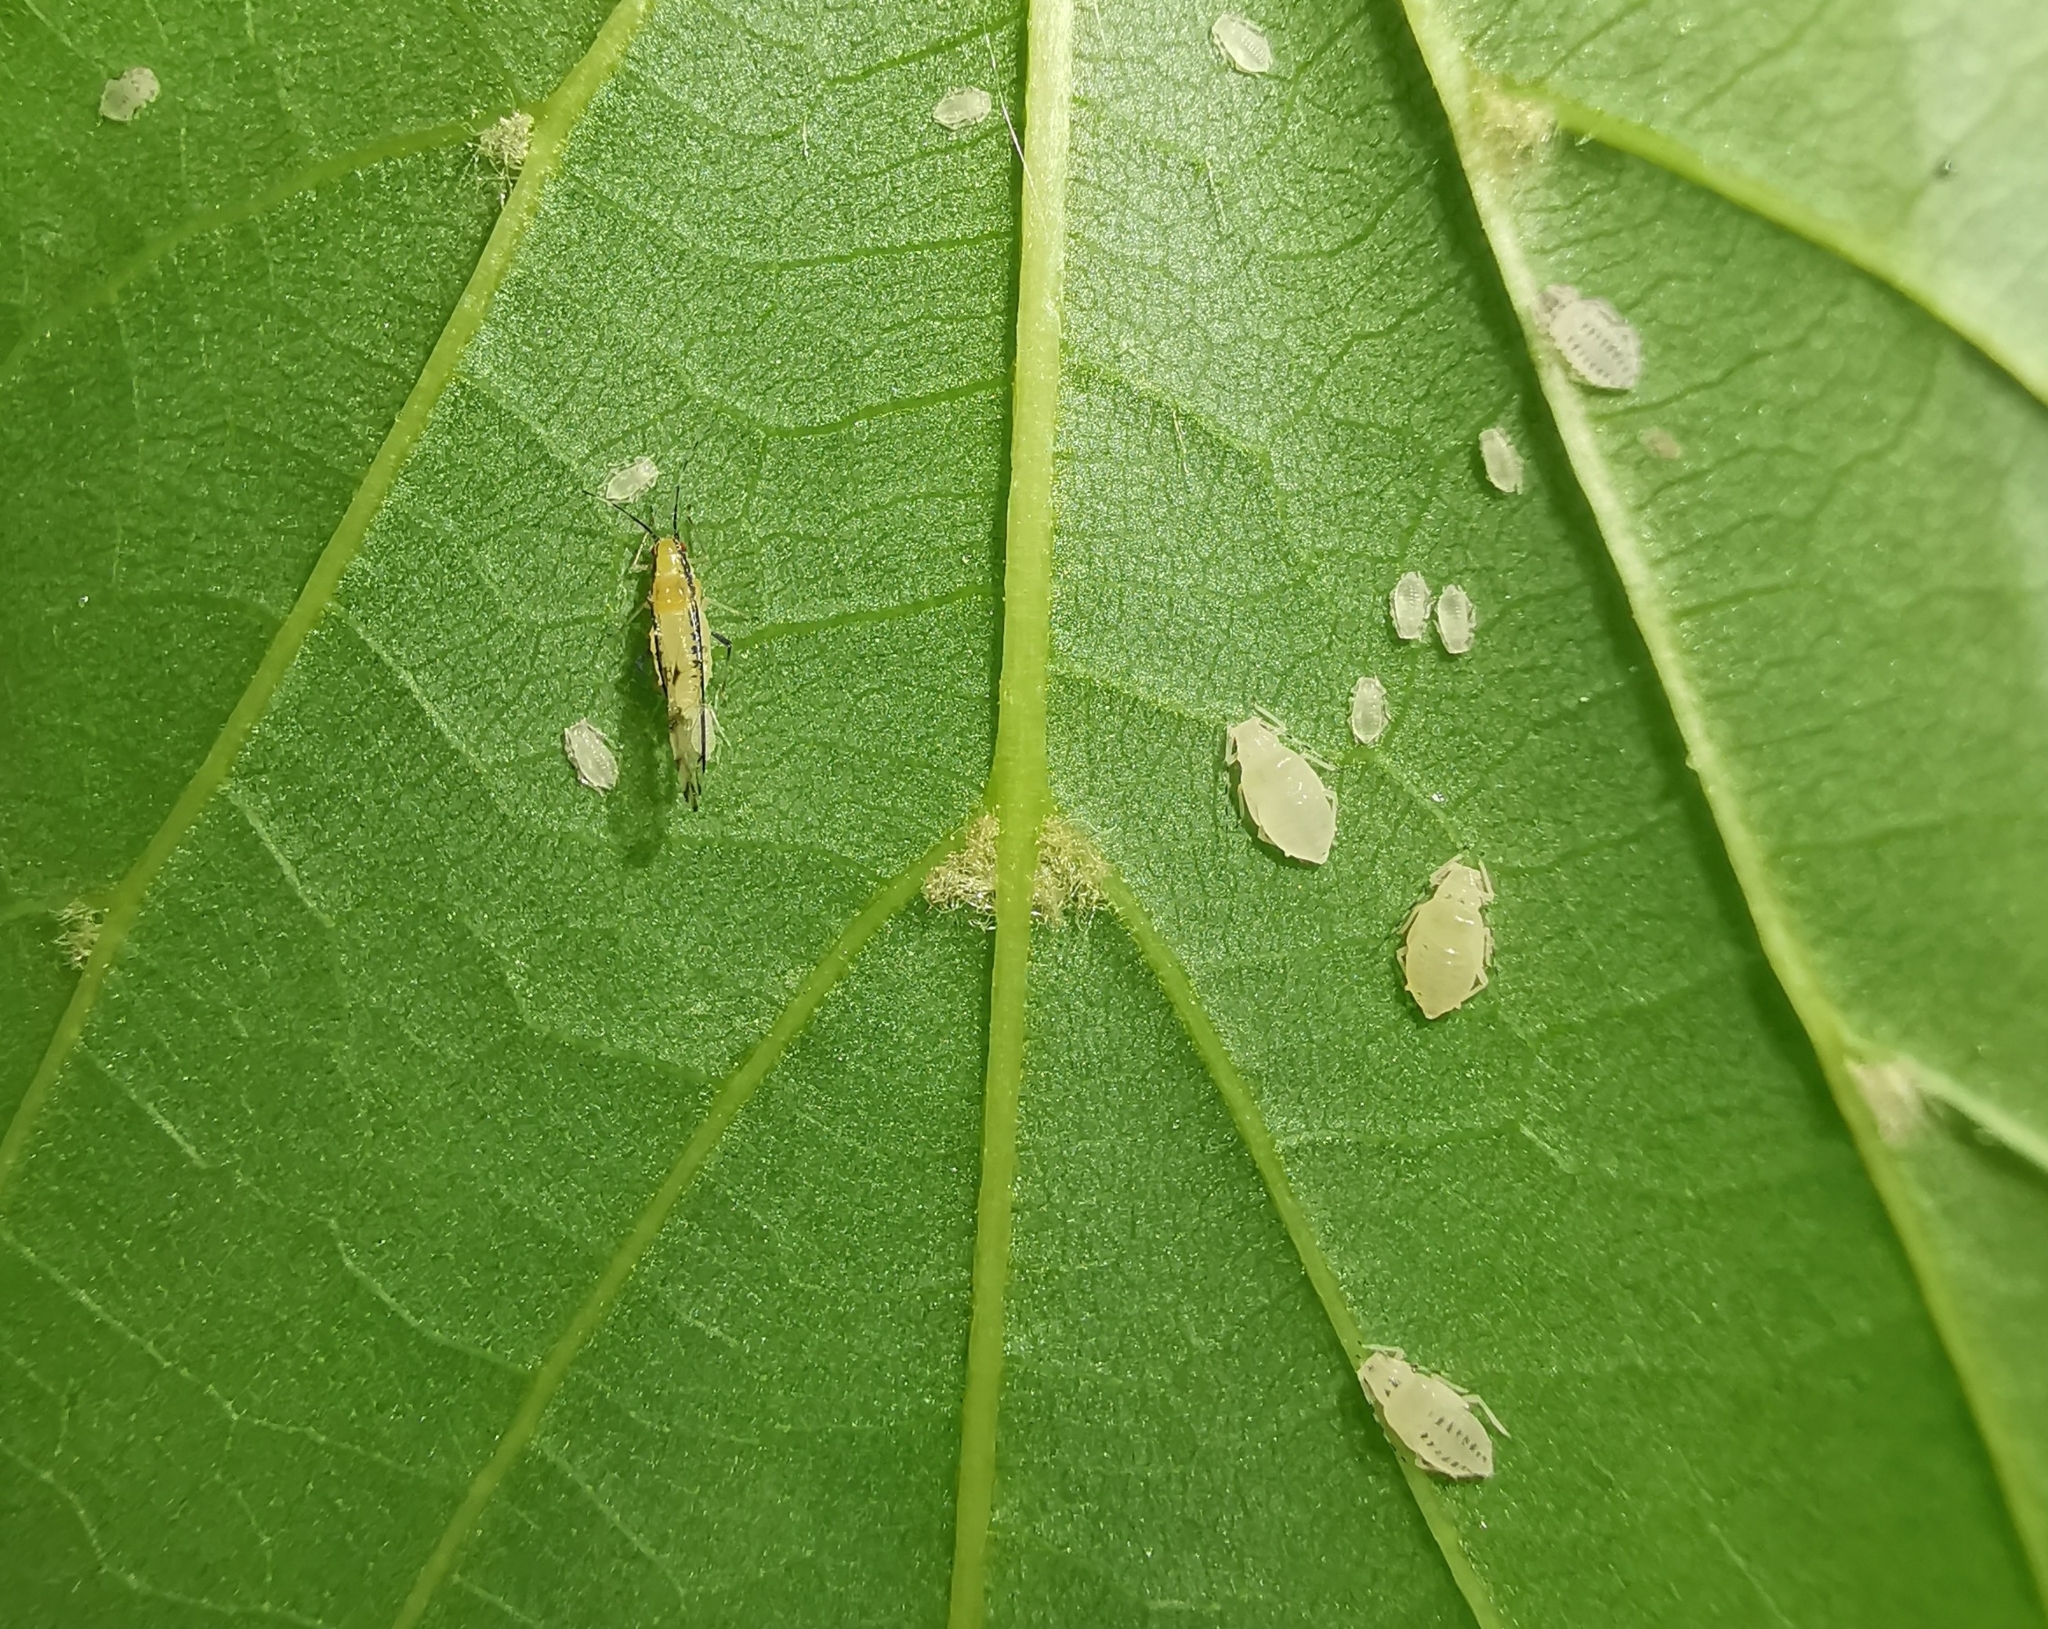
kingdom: Animalia
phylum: Arthropoda
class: Insecta
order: Hemiptera
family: Aphididae
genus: Eucallipterus
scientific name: Eucallipterus tiliae
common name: Aphid
